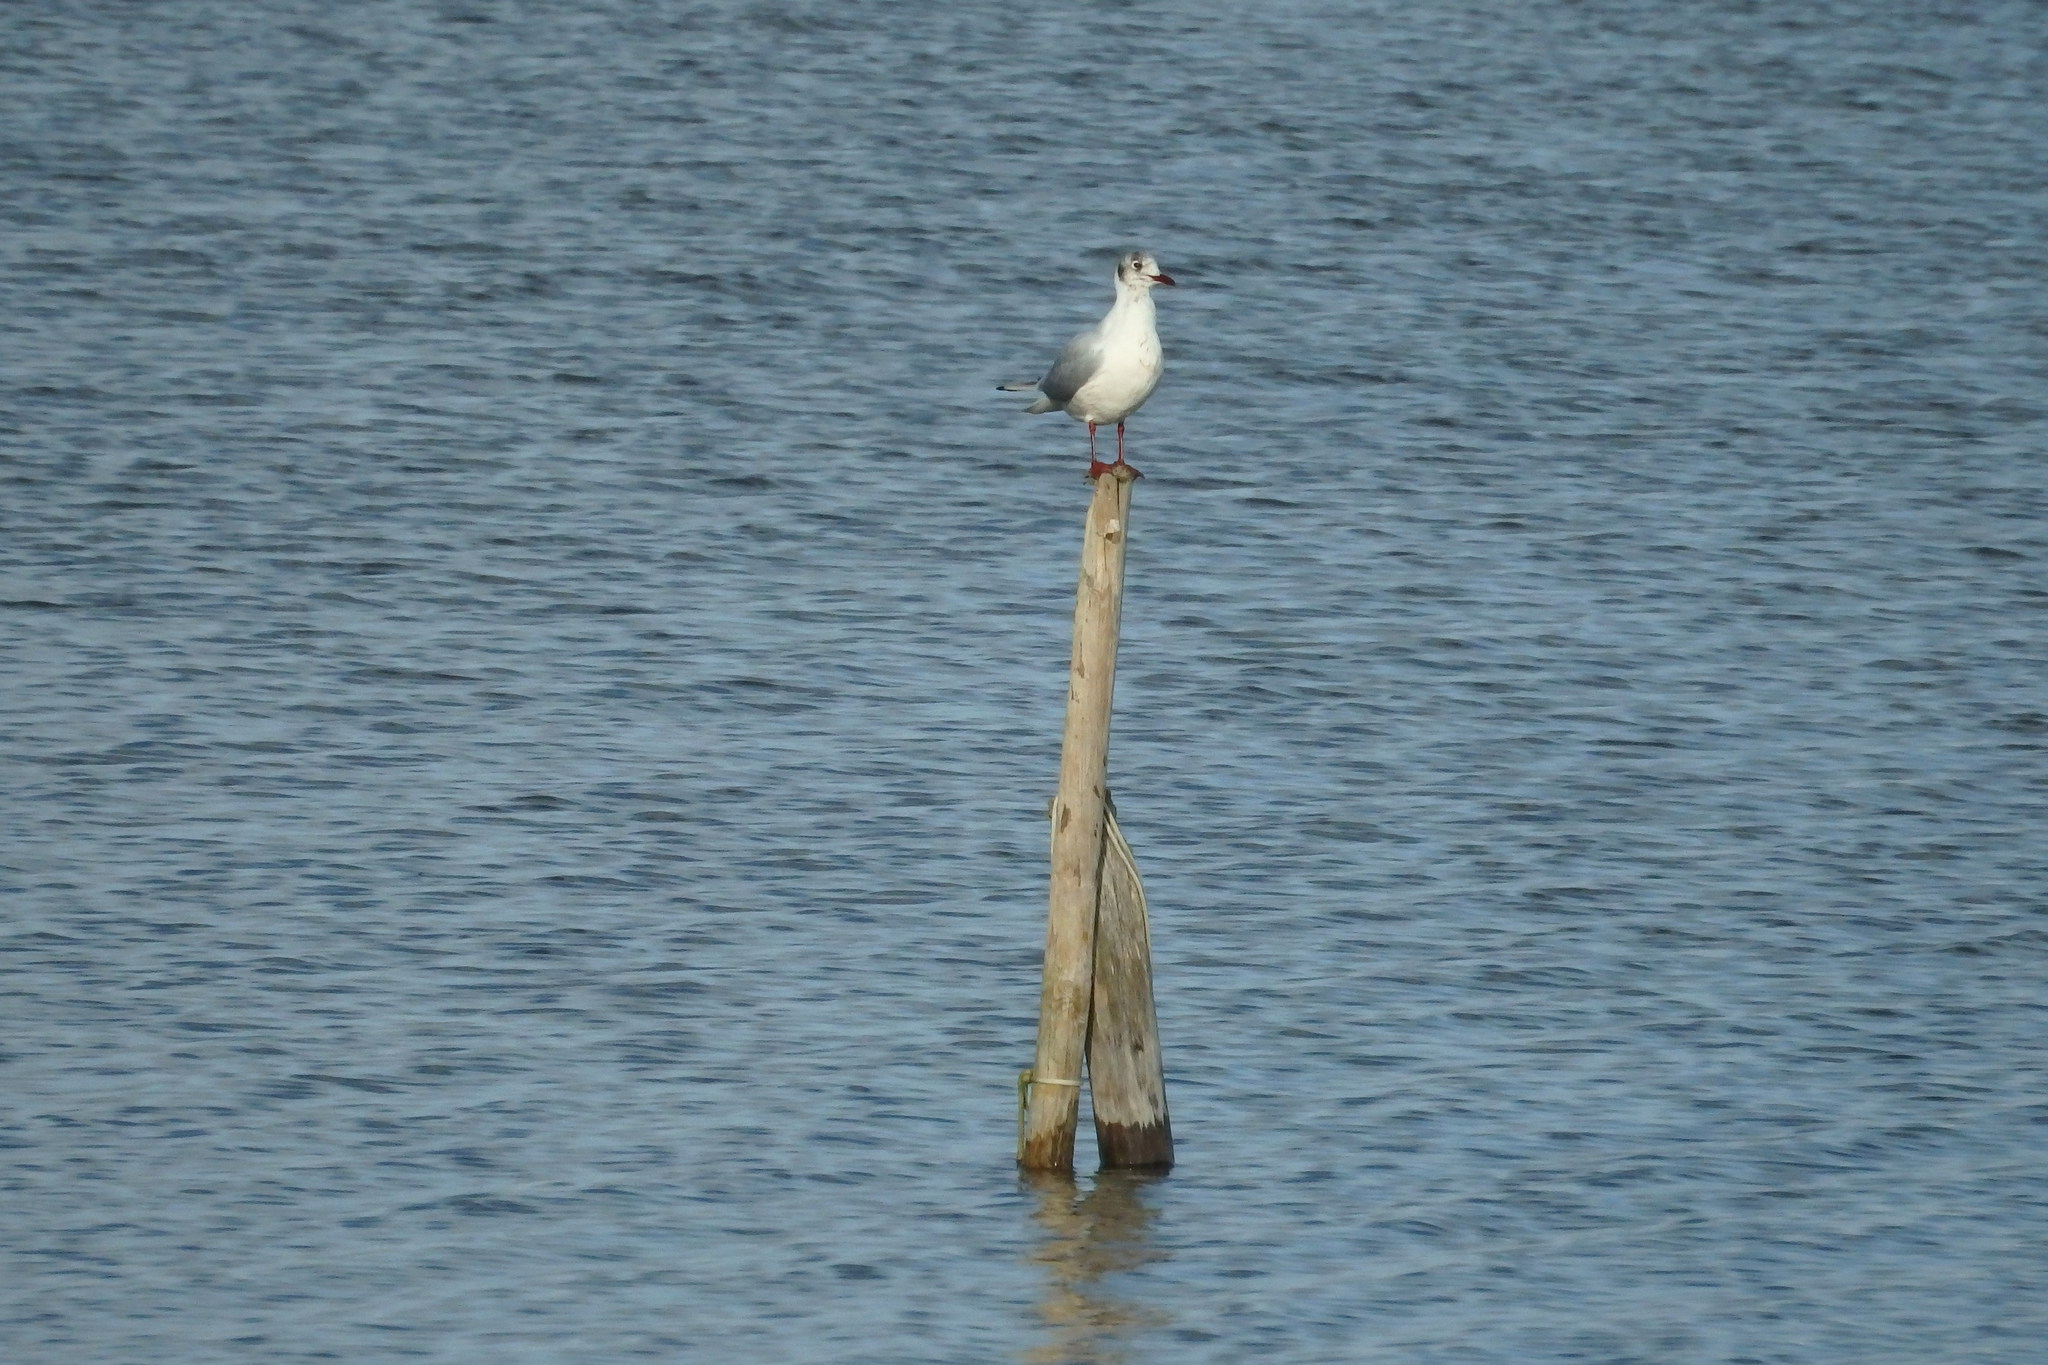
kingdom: Animalia
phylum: Chordata
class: Aves
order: Charadriiformes
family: Laridae
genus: Chroicocephalus
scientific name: Chroicocephalus ridibundus
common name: Black-headed gull
